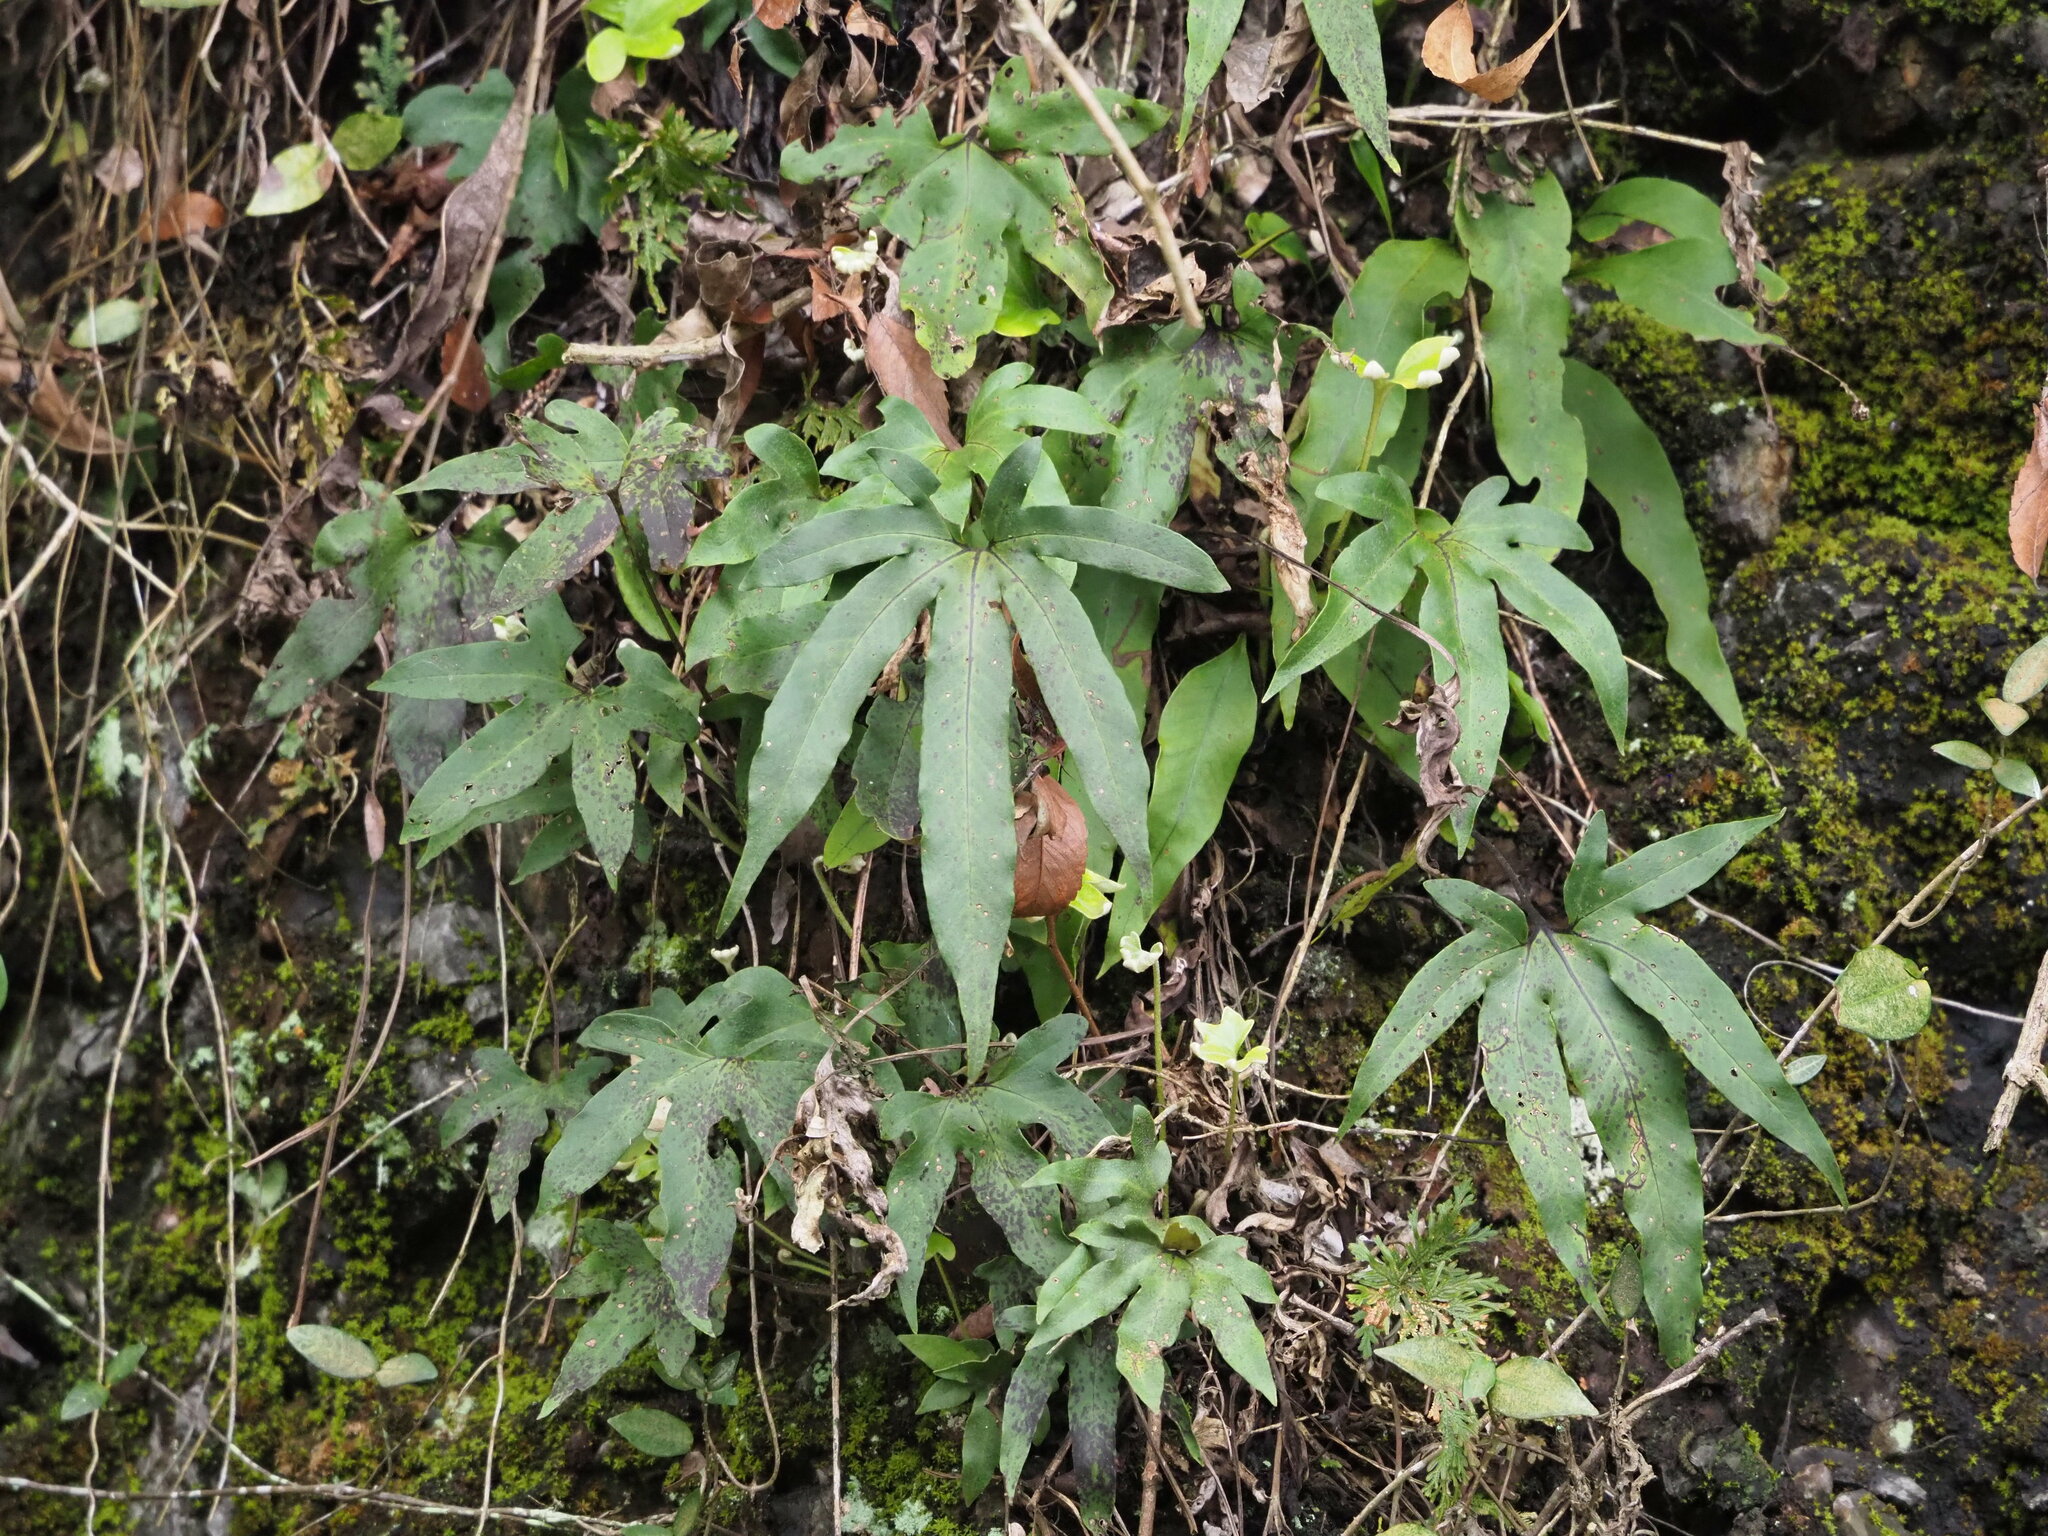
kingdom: Plantae
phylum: Tracheophyta
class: Polypodiopsida
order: Polypodiales
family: Polypodiaceae
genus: Pyrrosia
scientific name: Pyrrosia polydactyla
